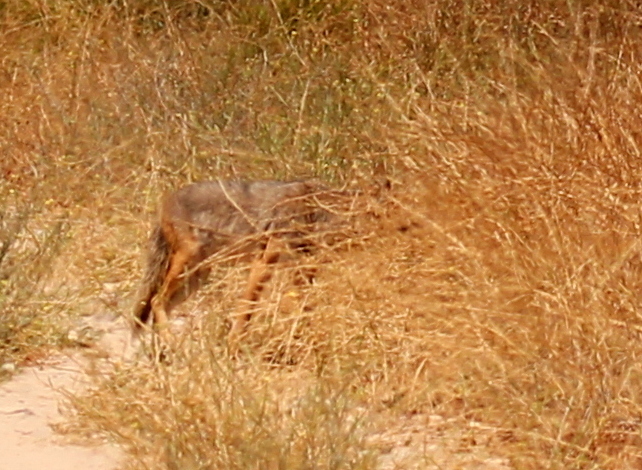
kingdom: Animalia
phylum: Chordata
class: Mammalia
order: Carnivora
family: Canidae
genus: Canis
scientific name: Canis latrans
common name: Coyote
